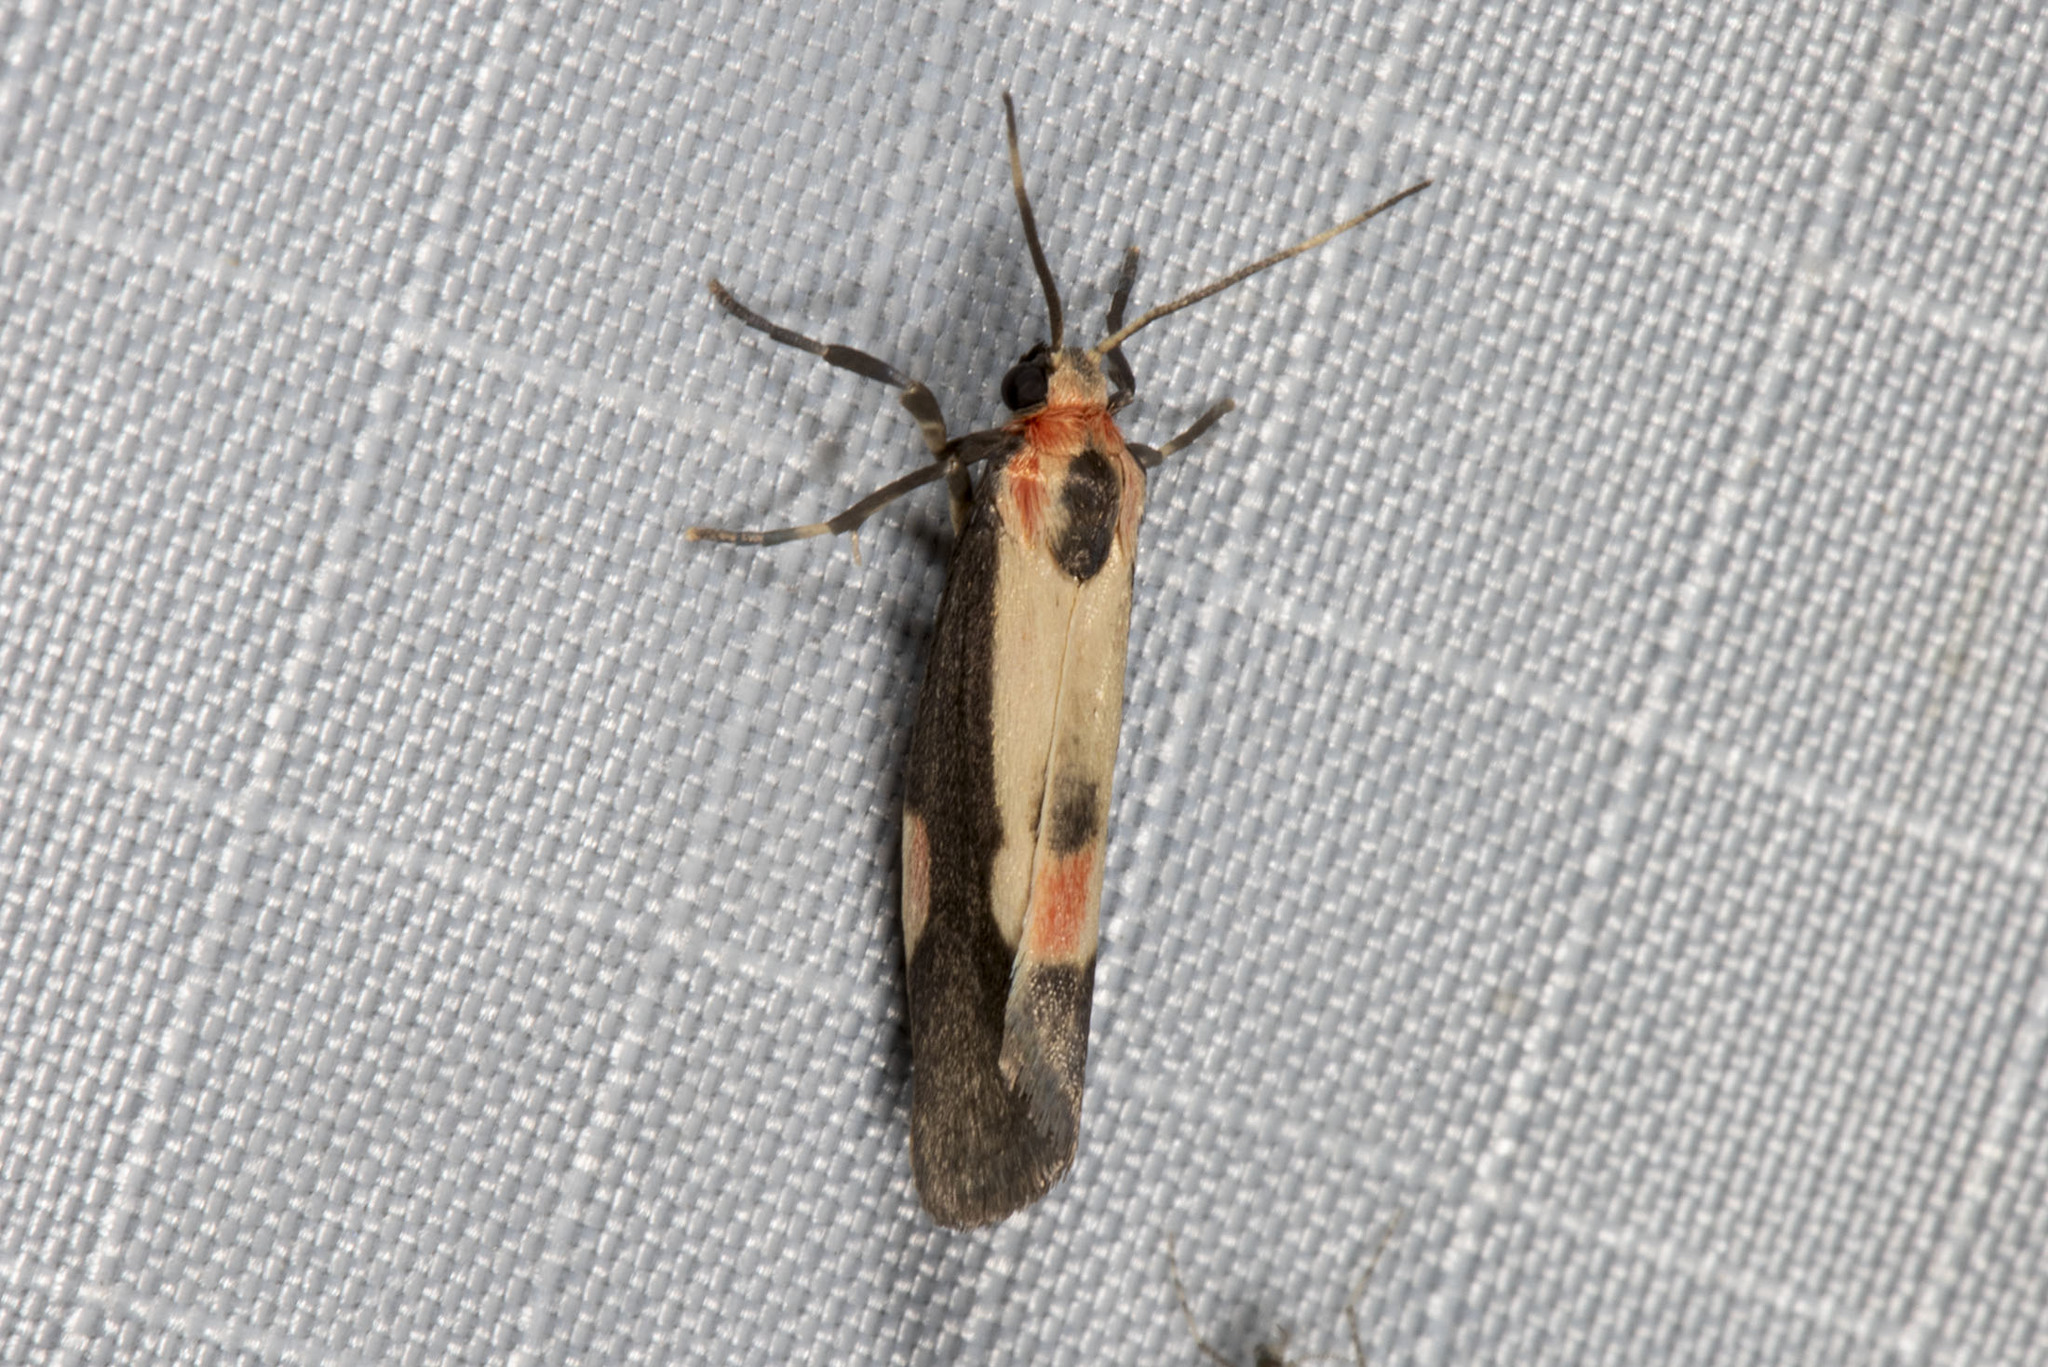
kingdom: Animalia
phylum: Arthropoda
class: Insecta
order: Lepidoptera
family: Erebidae
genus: Cisthene
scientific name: Cisthene packardii
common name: Packard's lichen moth
